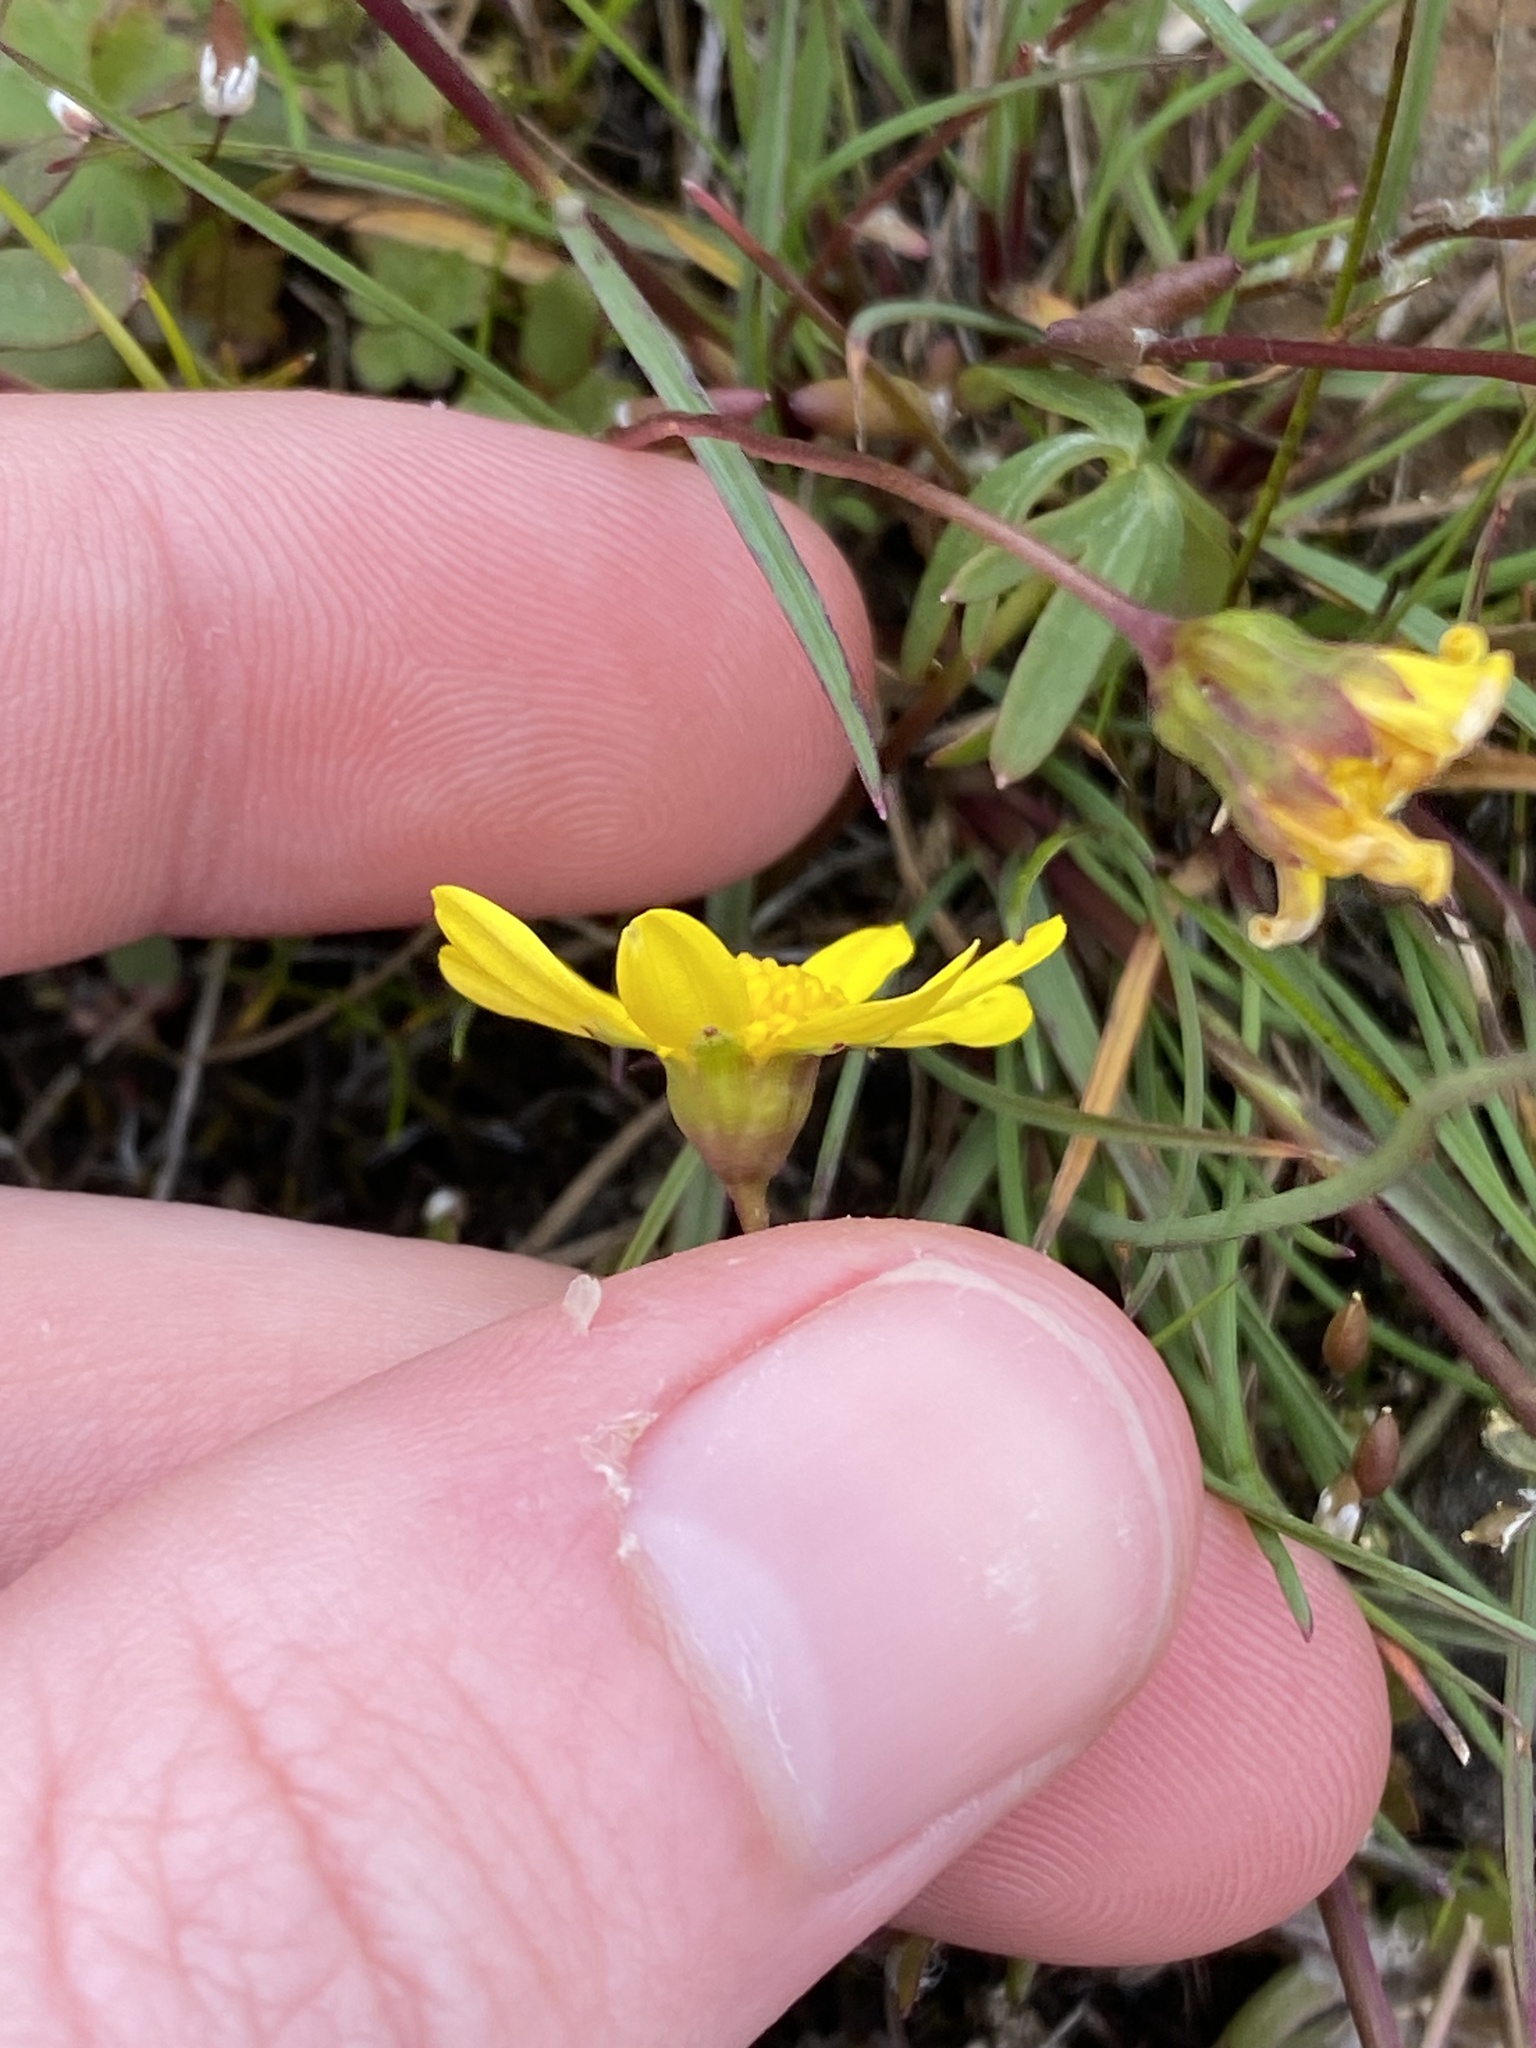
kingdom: Plantae
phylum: Tracheophyta
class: Magnoliopsida
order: Asterales
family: Asteraceae
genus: Crocidium
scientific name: Crocidium multicaule
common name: Common spring gold
